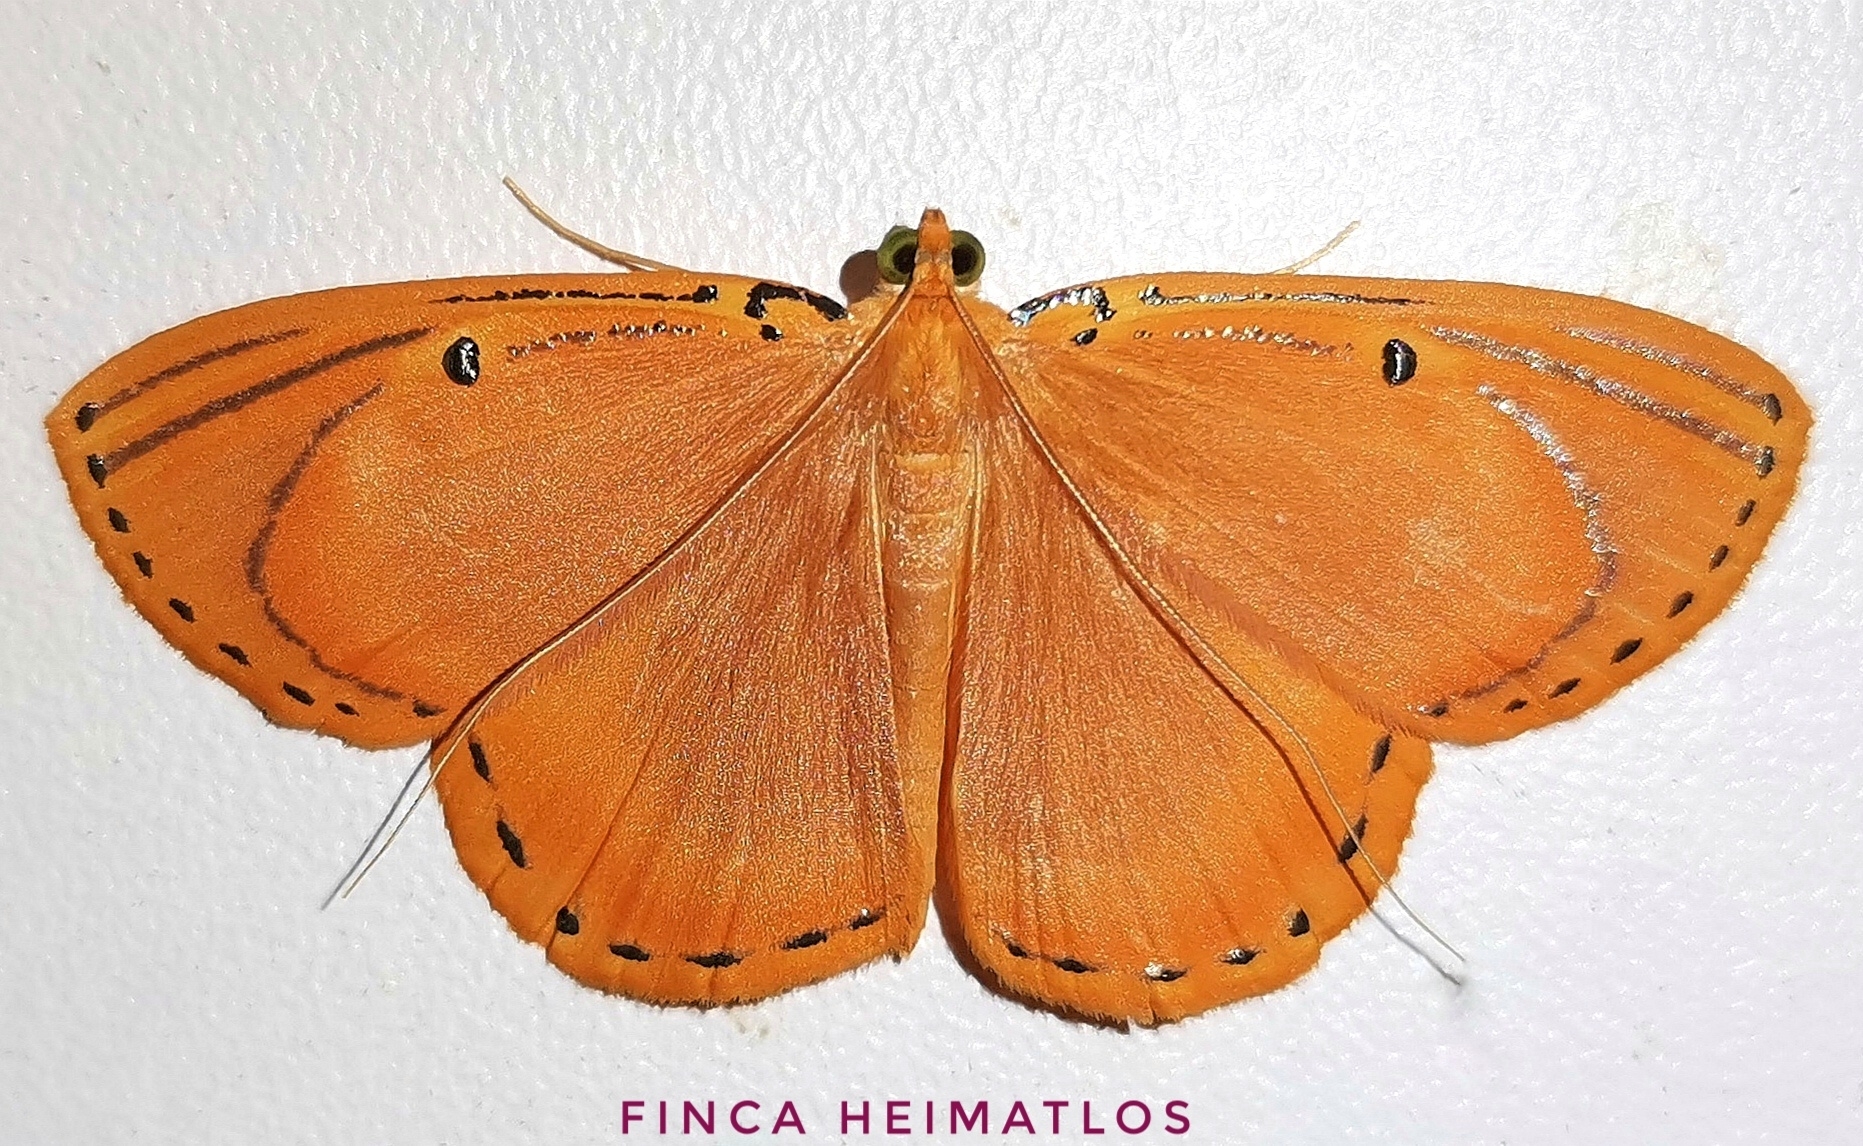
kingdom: Animalia
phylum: Arthropoda
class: Insecta
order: Lepidoptera
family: Geometridae
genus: Palyas
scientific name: Palyas locuples
